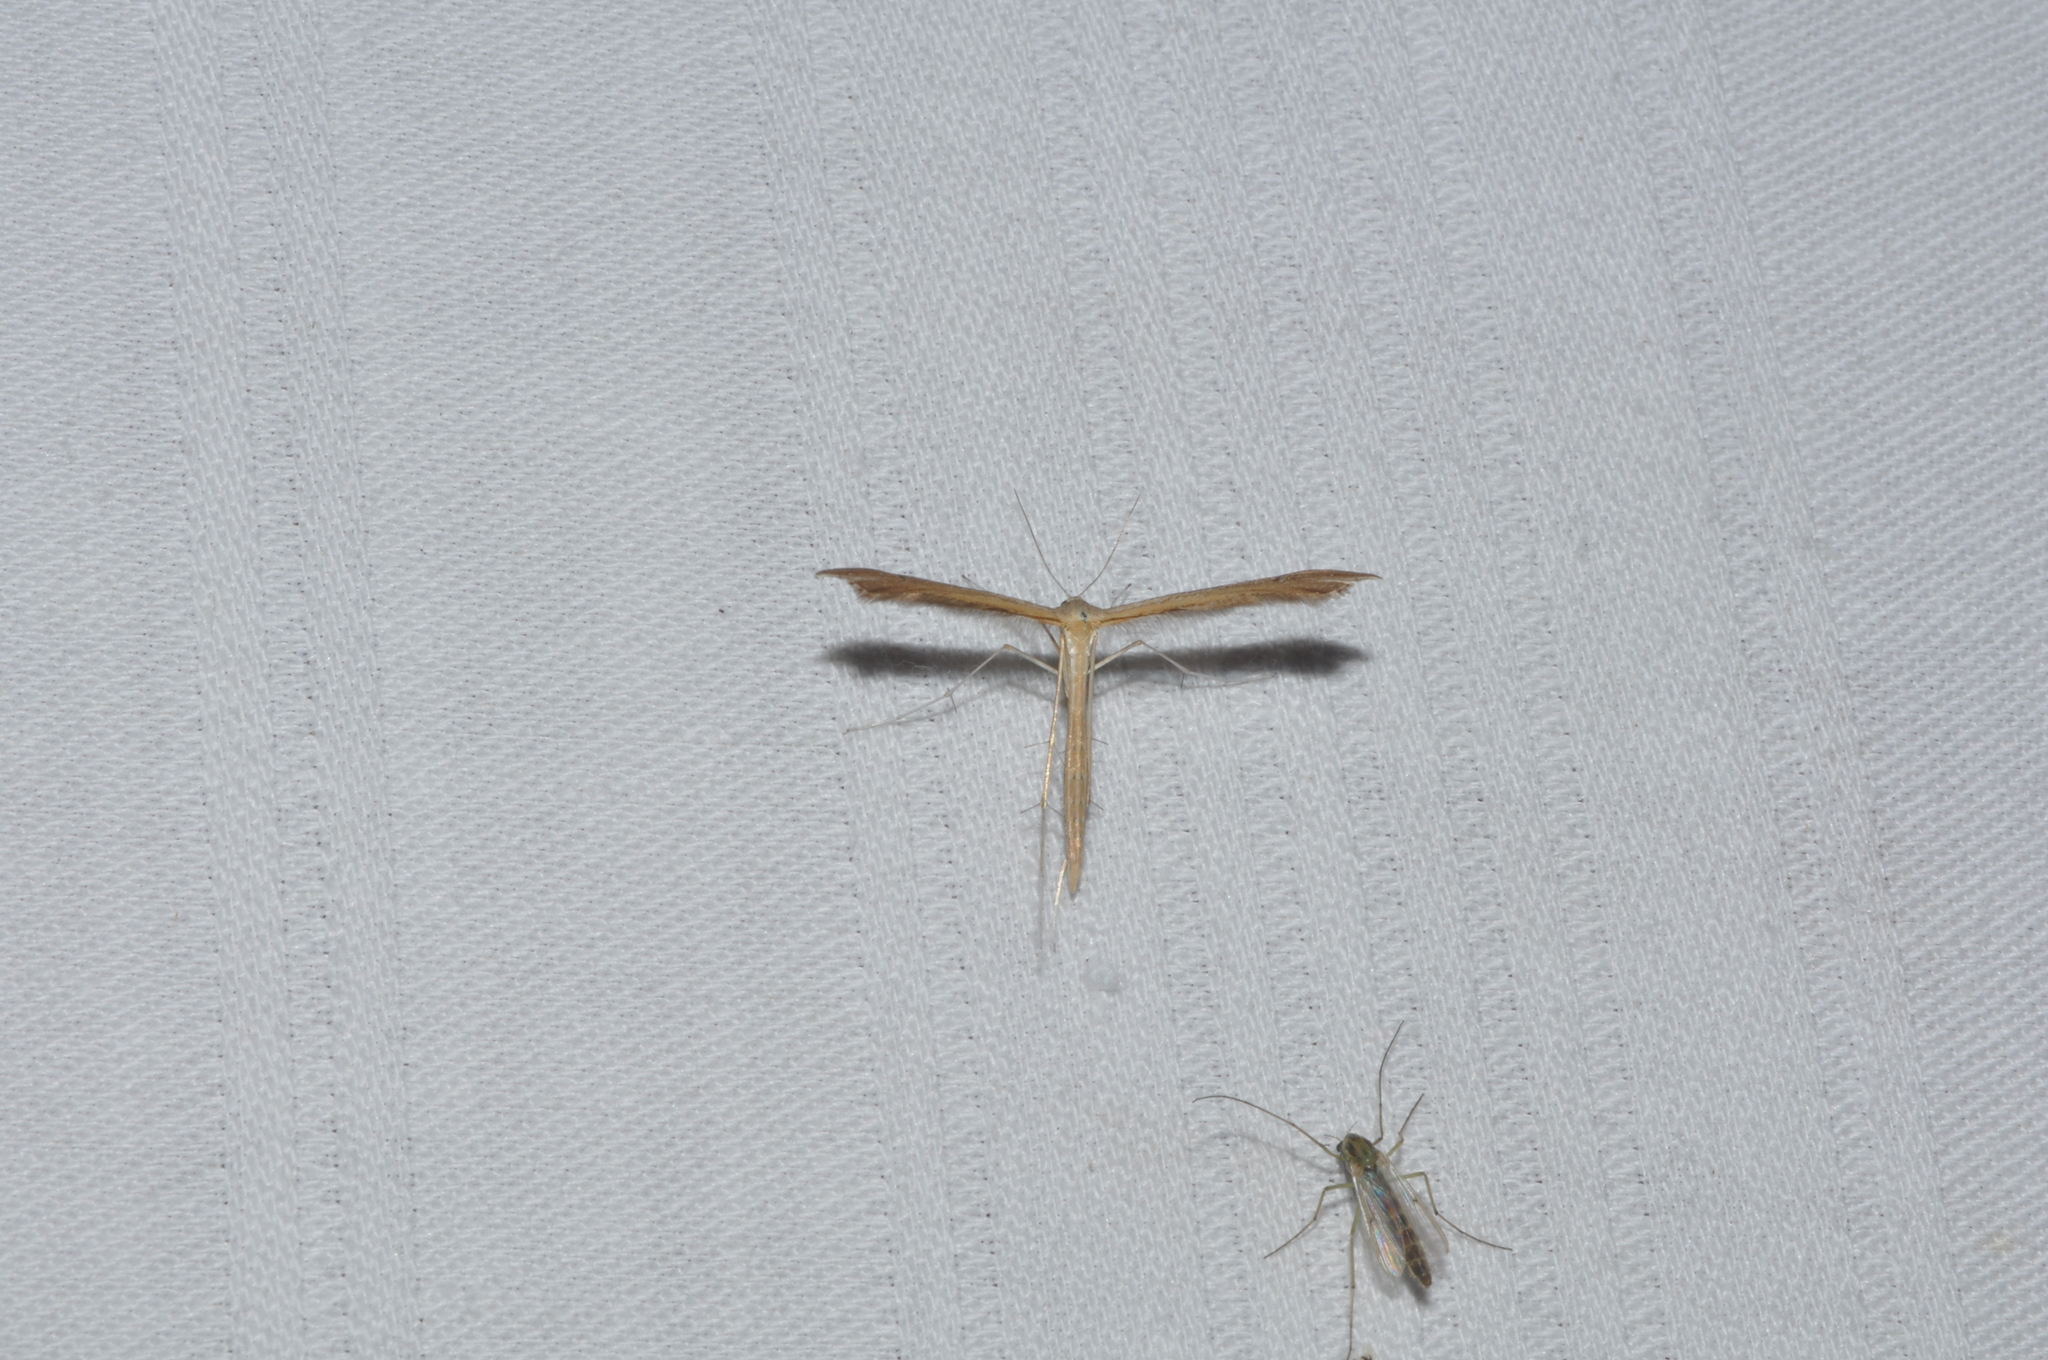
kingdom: Animalia
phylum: Arthropoda
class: Insecta
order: Lepidoptera
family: Pterophoridae
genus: Stenoptilia
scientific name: Stenoptilia pterodactyla
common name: Brown plume
